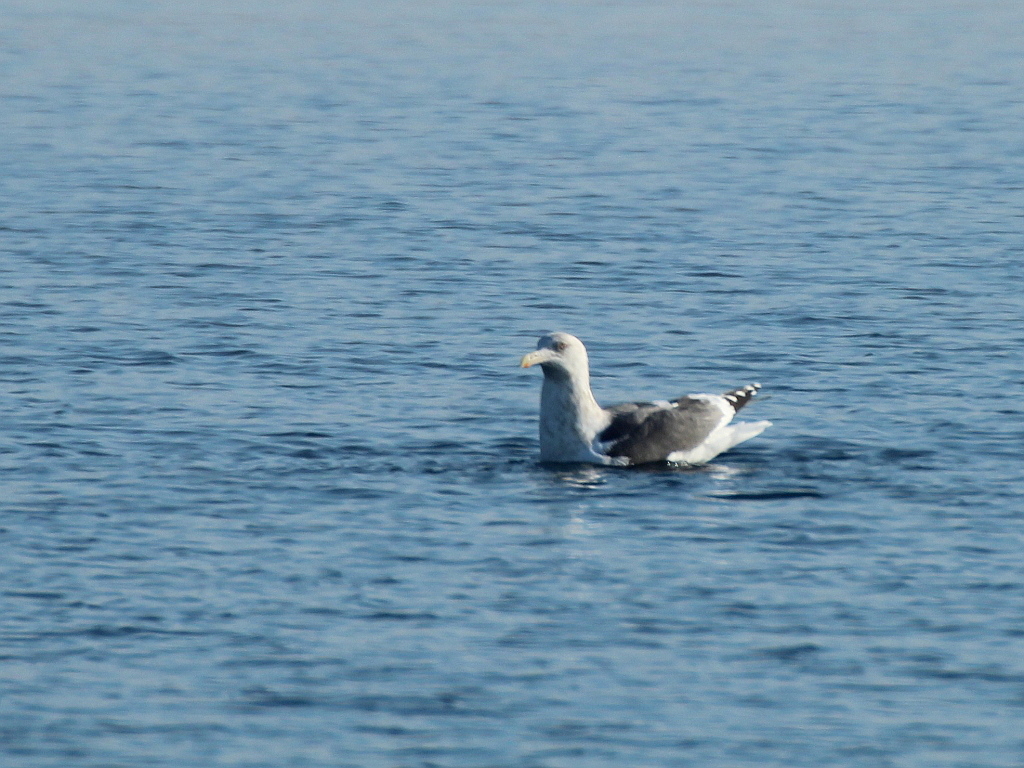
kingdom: Animalia
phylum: Chordata
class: Aves
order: Charadriiformes
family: Laridae
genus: Larus
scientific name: Larus schistisagus
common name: Slaty-backed gull
